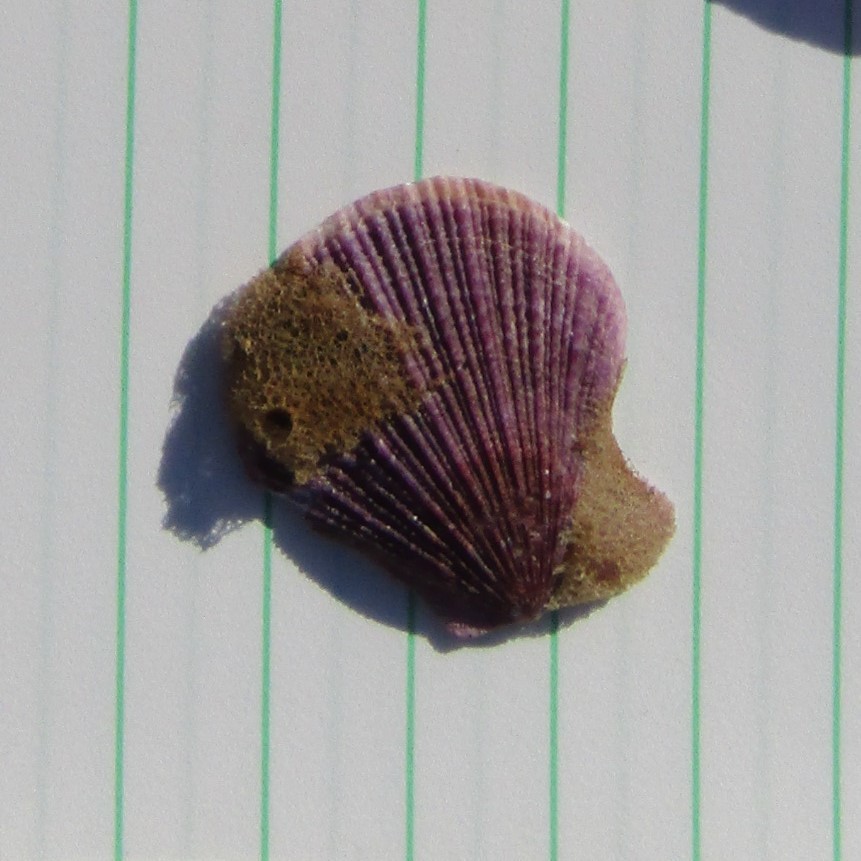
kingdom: Animalia
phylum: Mollusca
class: Bivalvia
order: Pectinida
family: Pectinidae
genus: Talochlamys
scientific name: Talochlamys zelandiae
